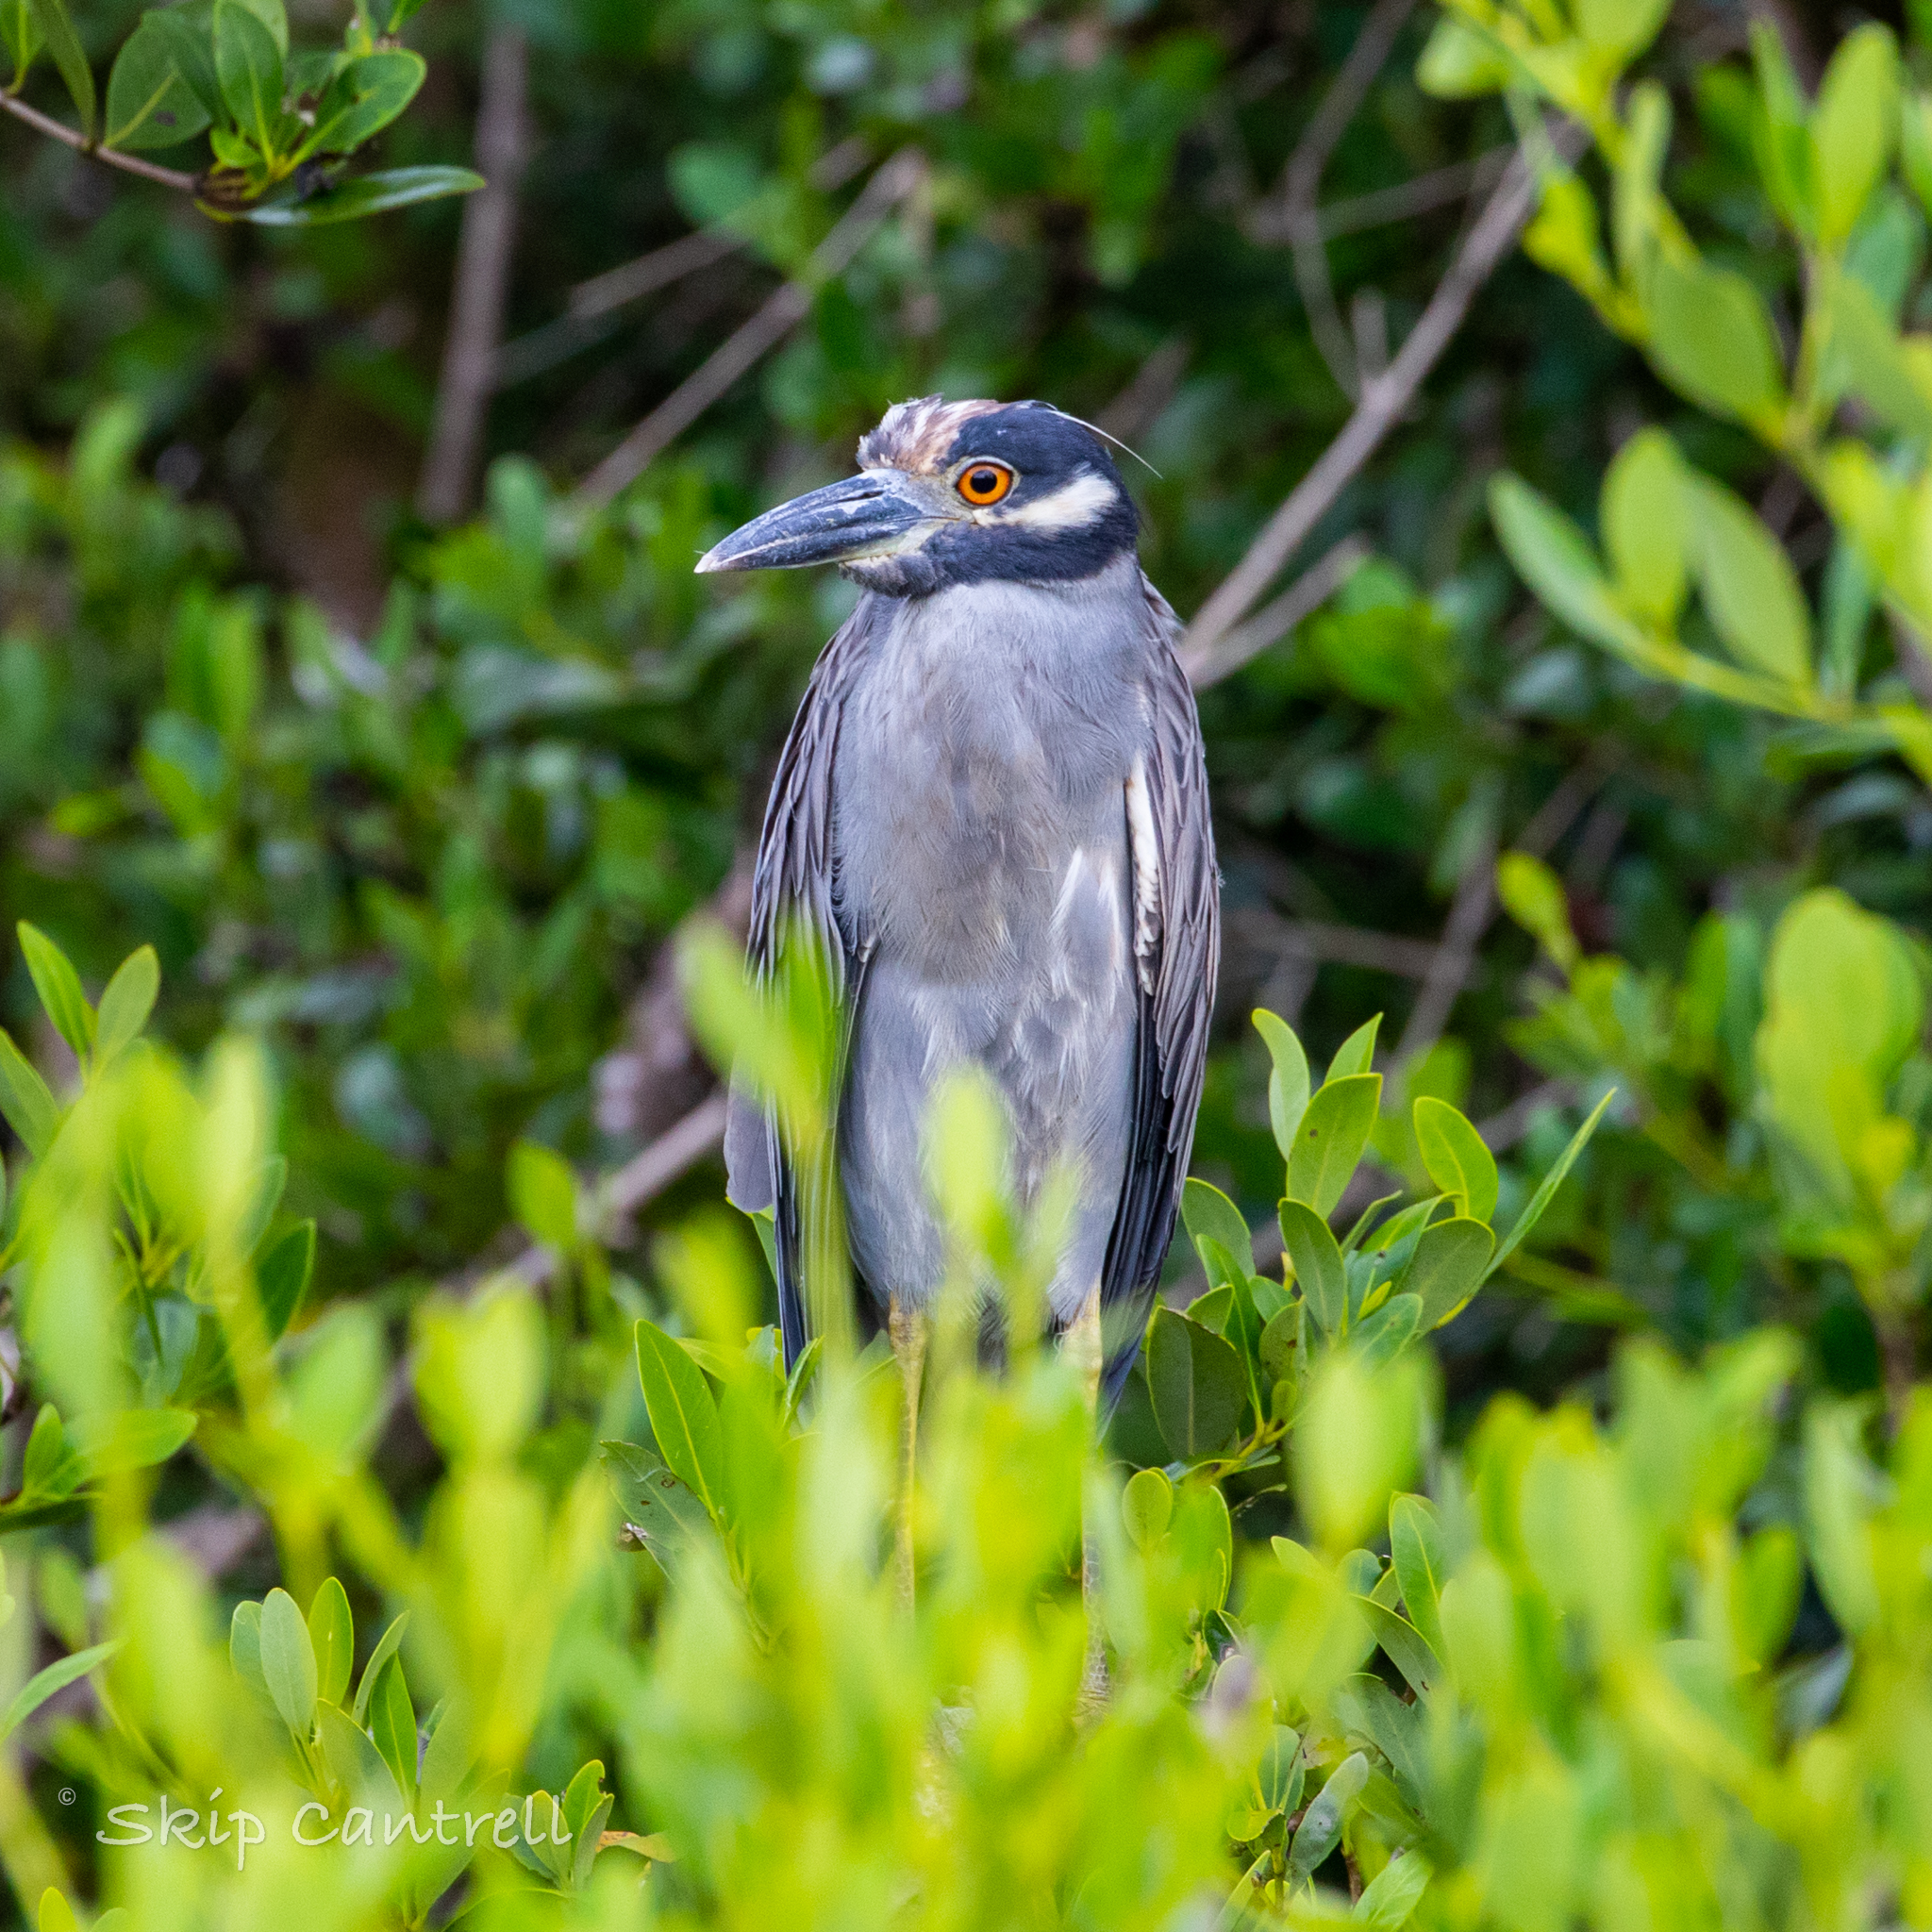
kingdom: Animalia
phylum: Chordata
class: Aves
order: Pelecaniformes
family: Ardeidae
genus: Nyctanassa
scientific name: Nyctanassa violacea
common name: Yellow-crowned night heron
